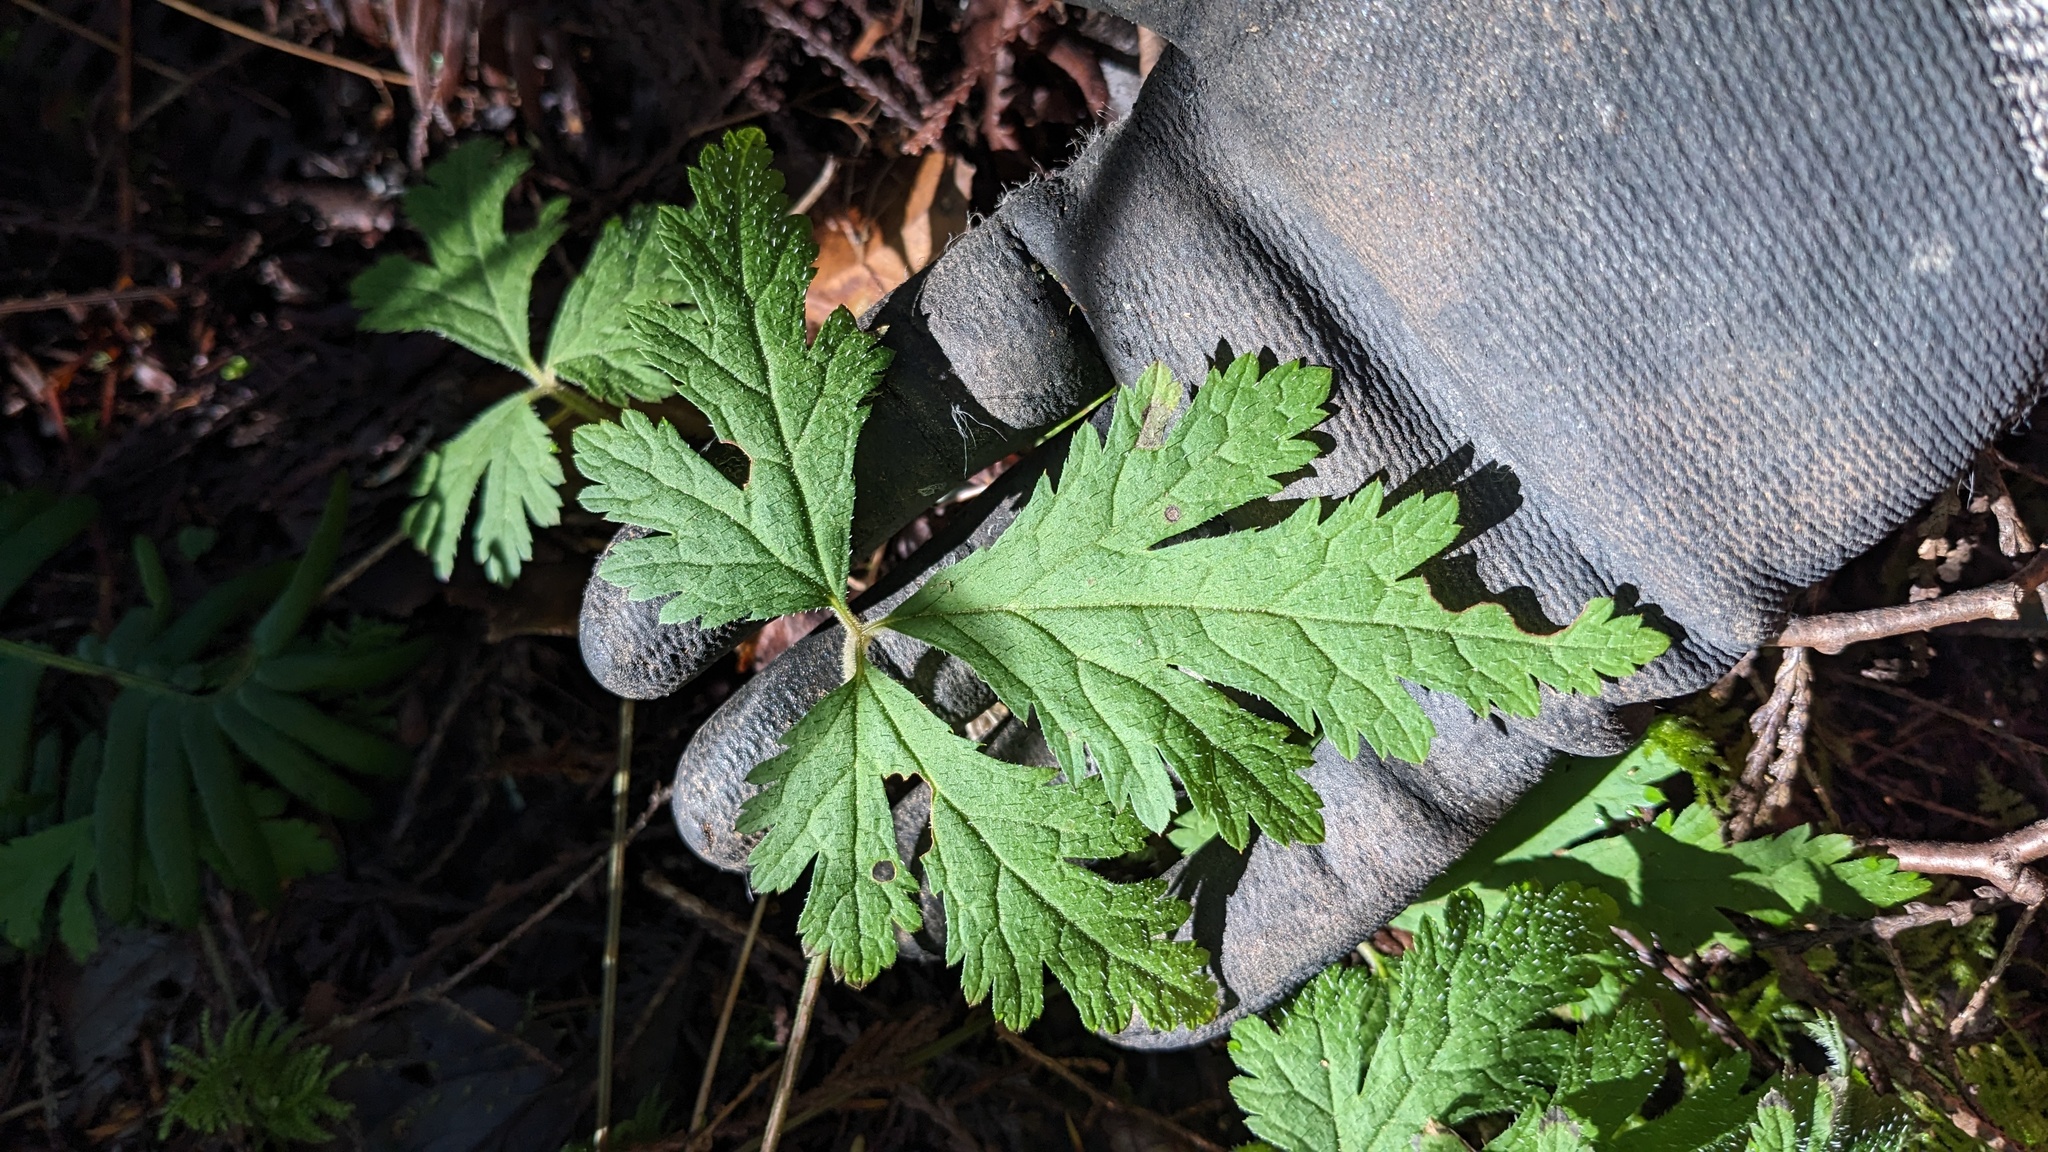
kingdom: Plantae
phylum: Tracheophyta
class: Magnoliopsida
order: Saxifragales
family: Saxifragaceae
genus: Tiarella
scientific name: Tiarella trifoliata
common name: Sugar-scoop
